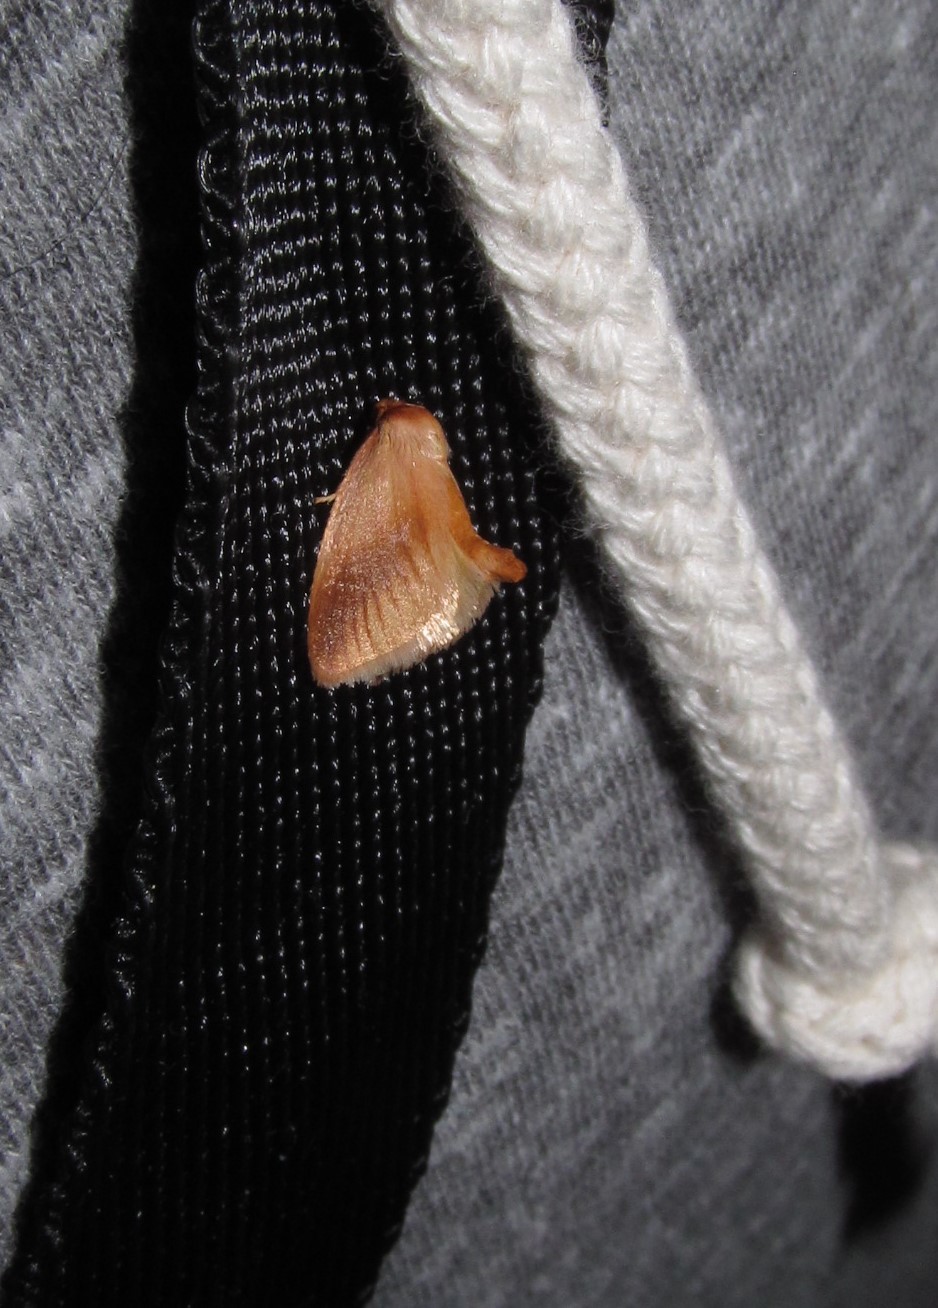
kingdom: Animalia
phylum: Arthropoda
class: Insecta
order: Lepidoptera
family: Limacodidae
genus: Tortricidia
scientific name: Tortricidia testacea
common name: Early button slug moth
